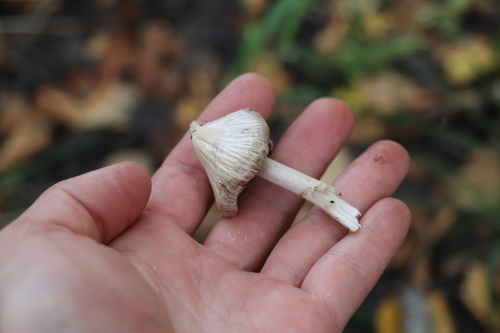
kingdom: Fungi
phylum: Basidiomycota
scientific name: Basidiomycota
